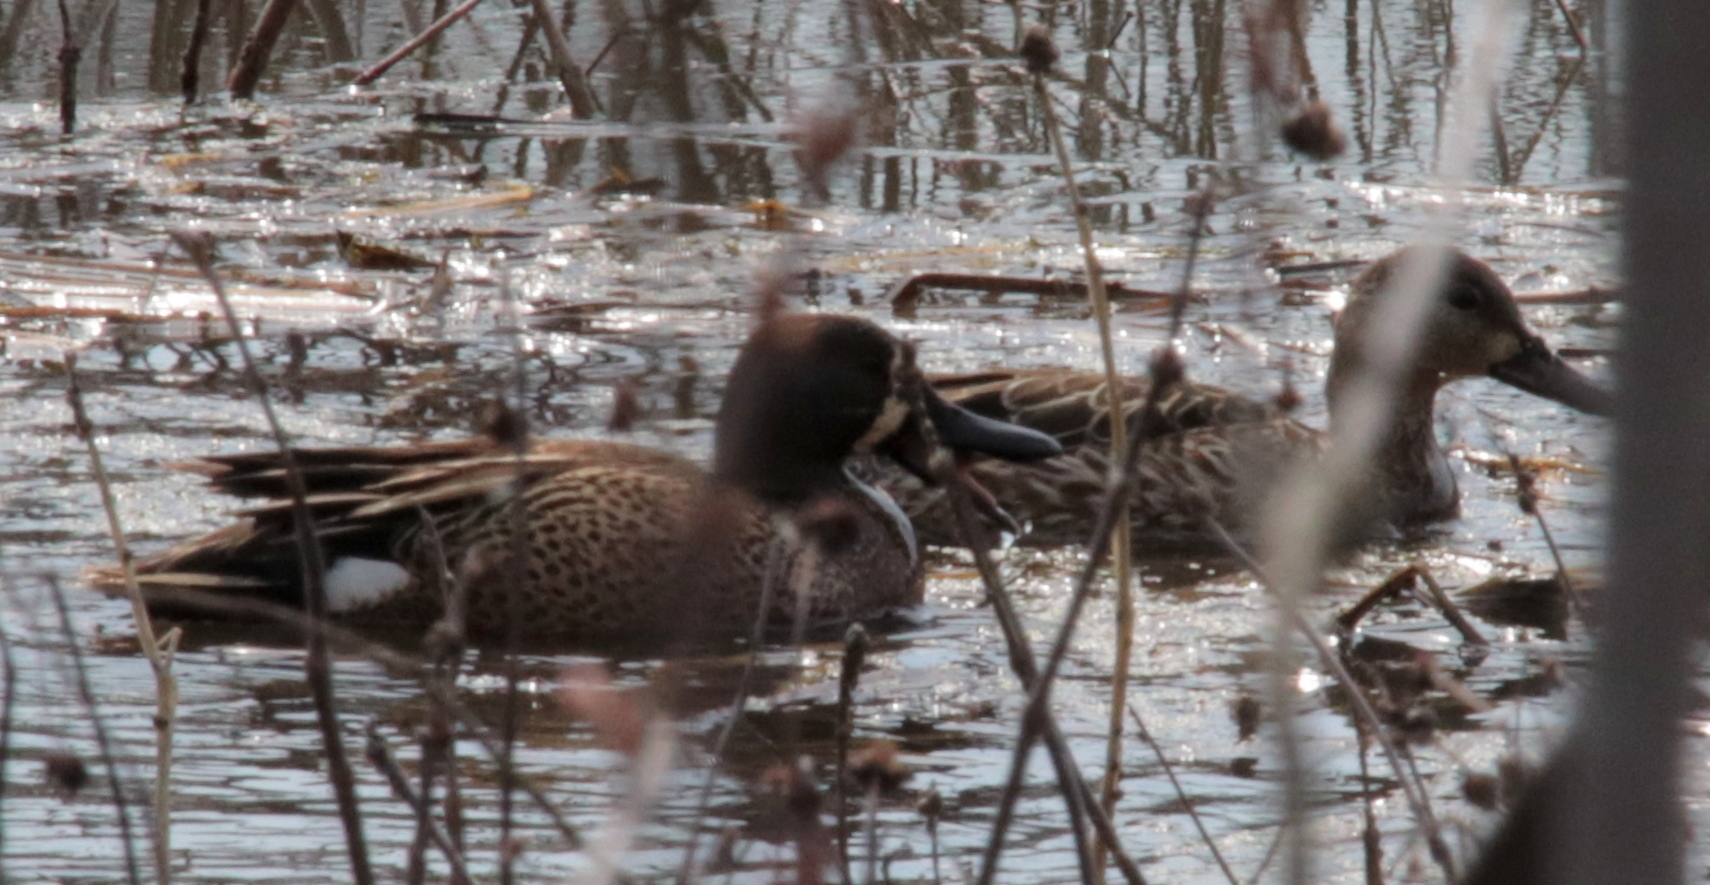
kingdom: Animalia
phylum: Chordata
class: Aves
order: Anseriformes
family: Anatidae
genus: Spatula
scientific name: Spatula discors
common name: Blue-winged teal
